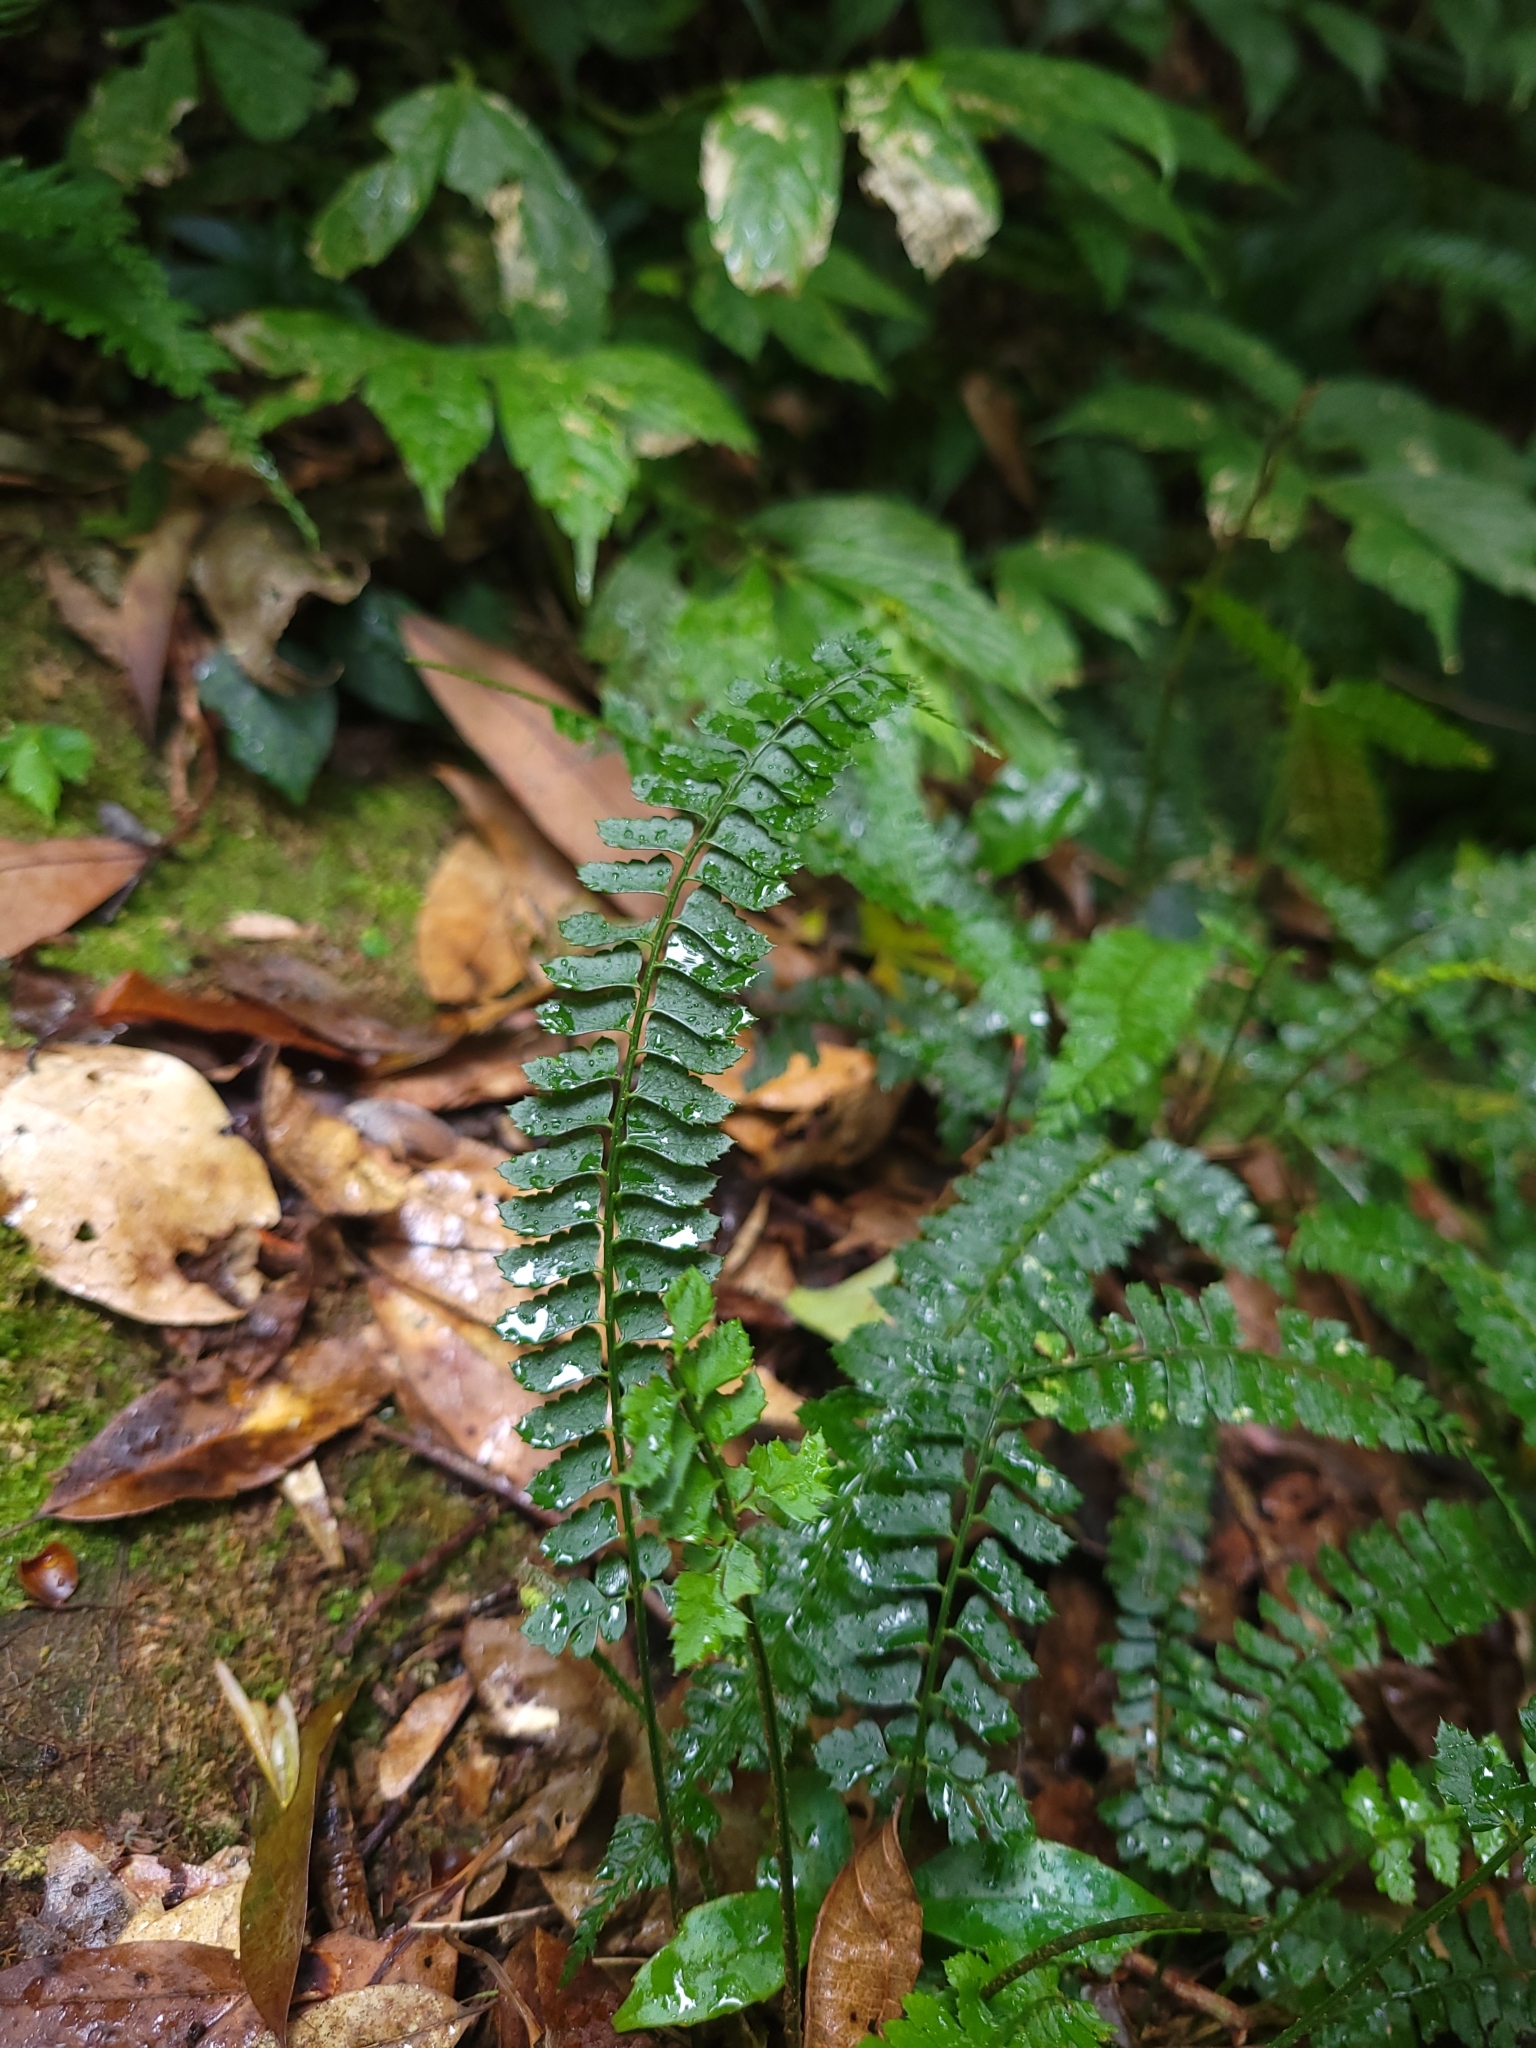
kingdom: Plantae
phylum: Tracheophyta
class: Polypodiopsida
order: Polypodiales
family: Dryopteridaceae
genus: Polystichum
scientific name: Polystichum hancockii
